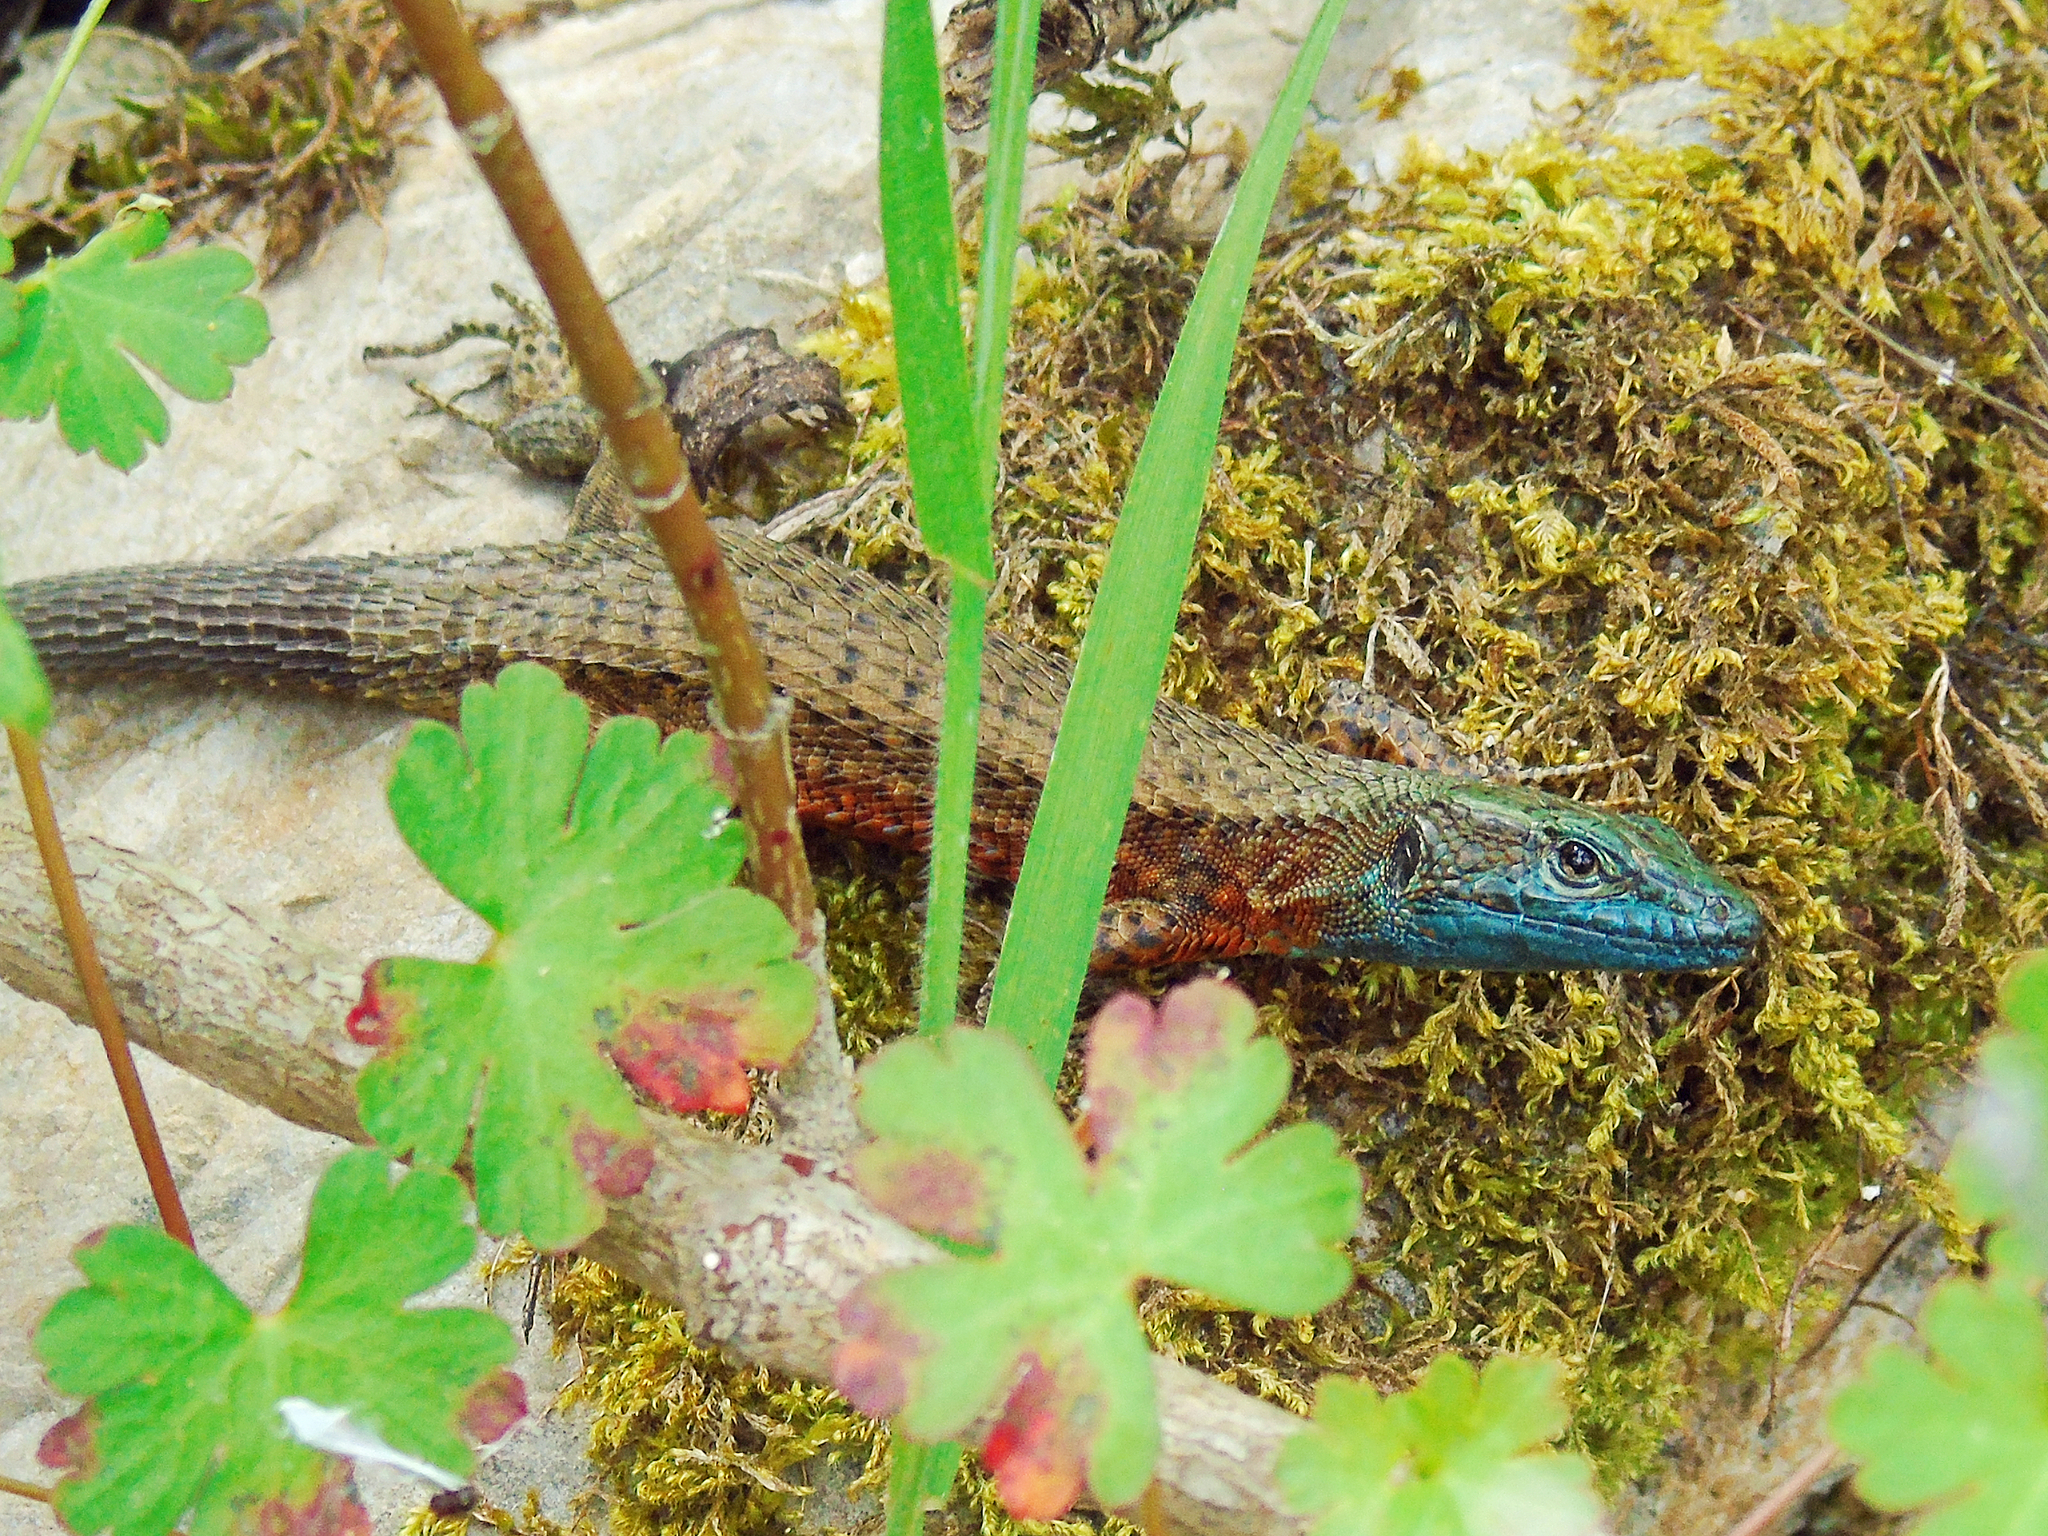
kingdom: Animalia
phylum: Chordata
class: Squamata
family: Lacertidae
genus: Algyroides
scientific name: Algyroides nigropunctatus
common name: Blue-throated keeled lizard
